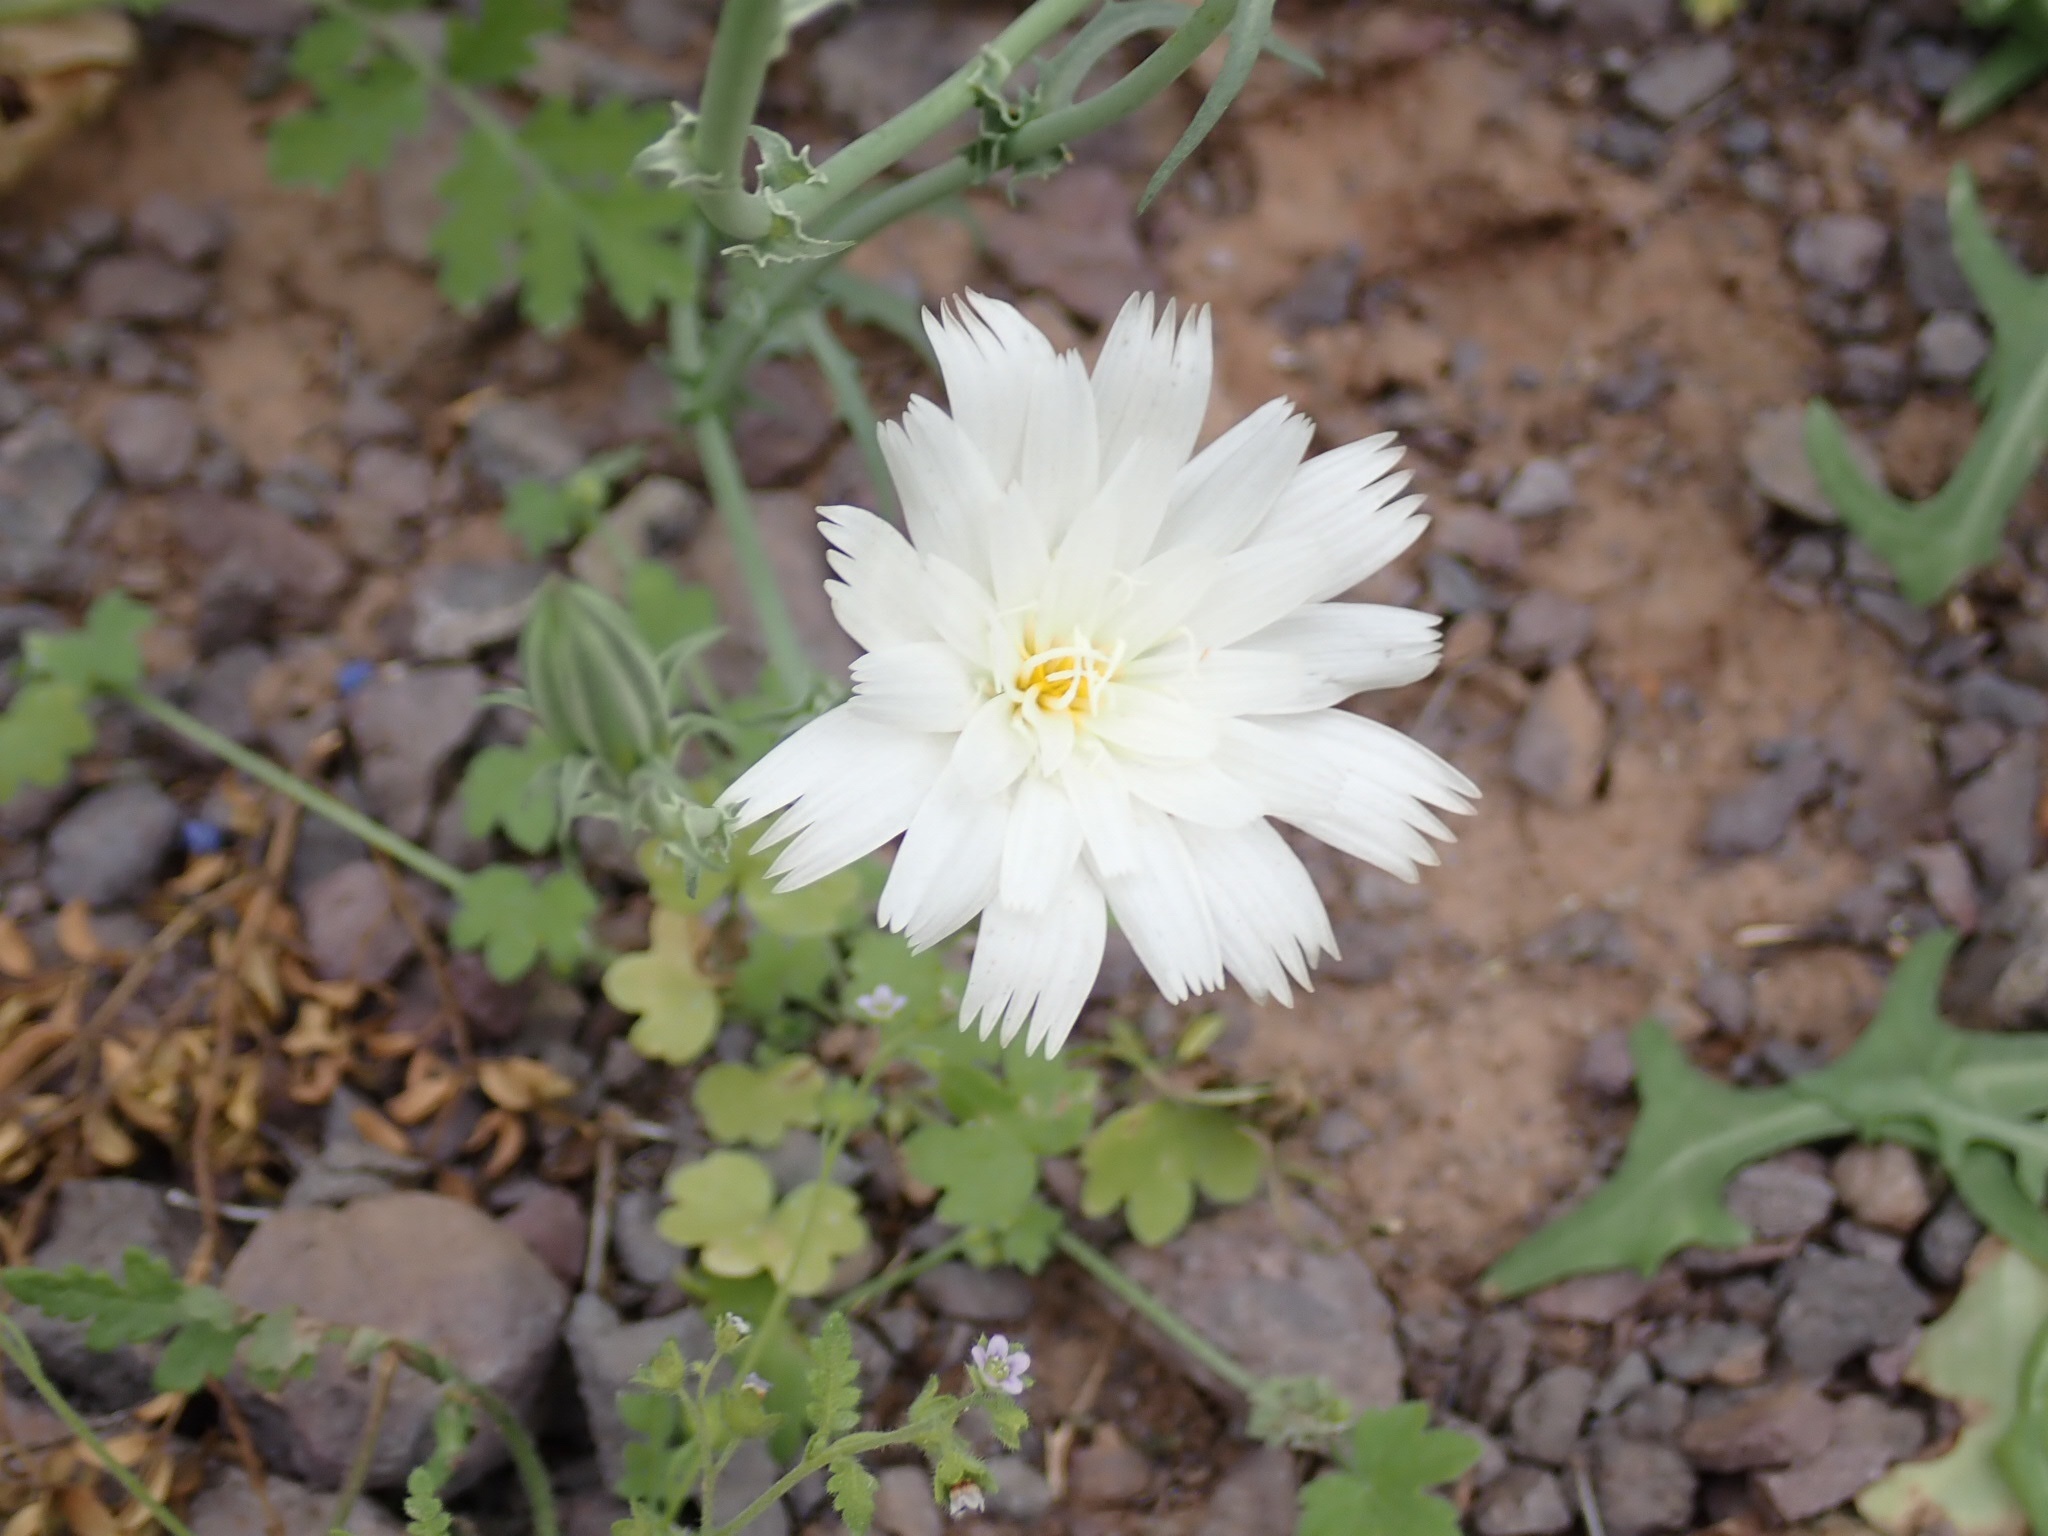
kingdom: Plantae
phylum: Tracheophyta
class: Magnoliopsida
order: Asterales
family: Asteraceae
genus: Rafinesquia
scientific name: Rafinesquia neomexicana
